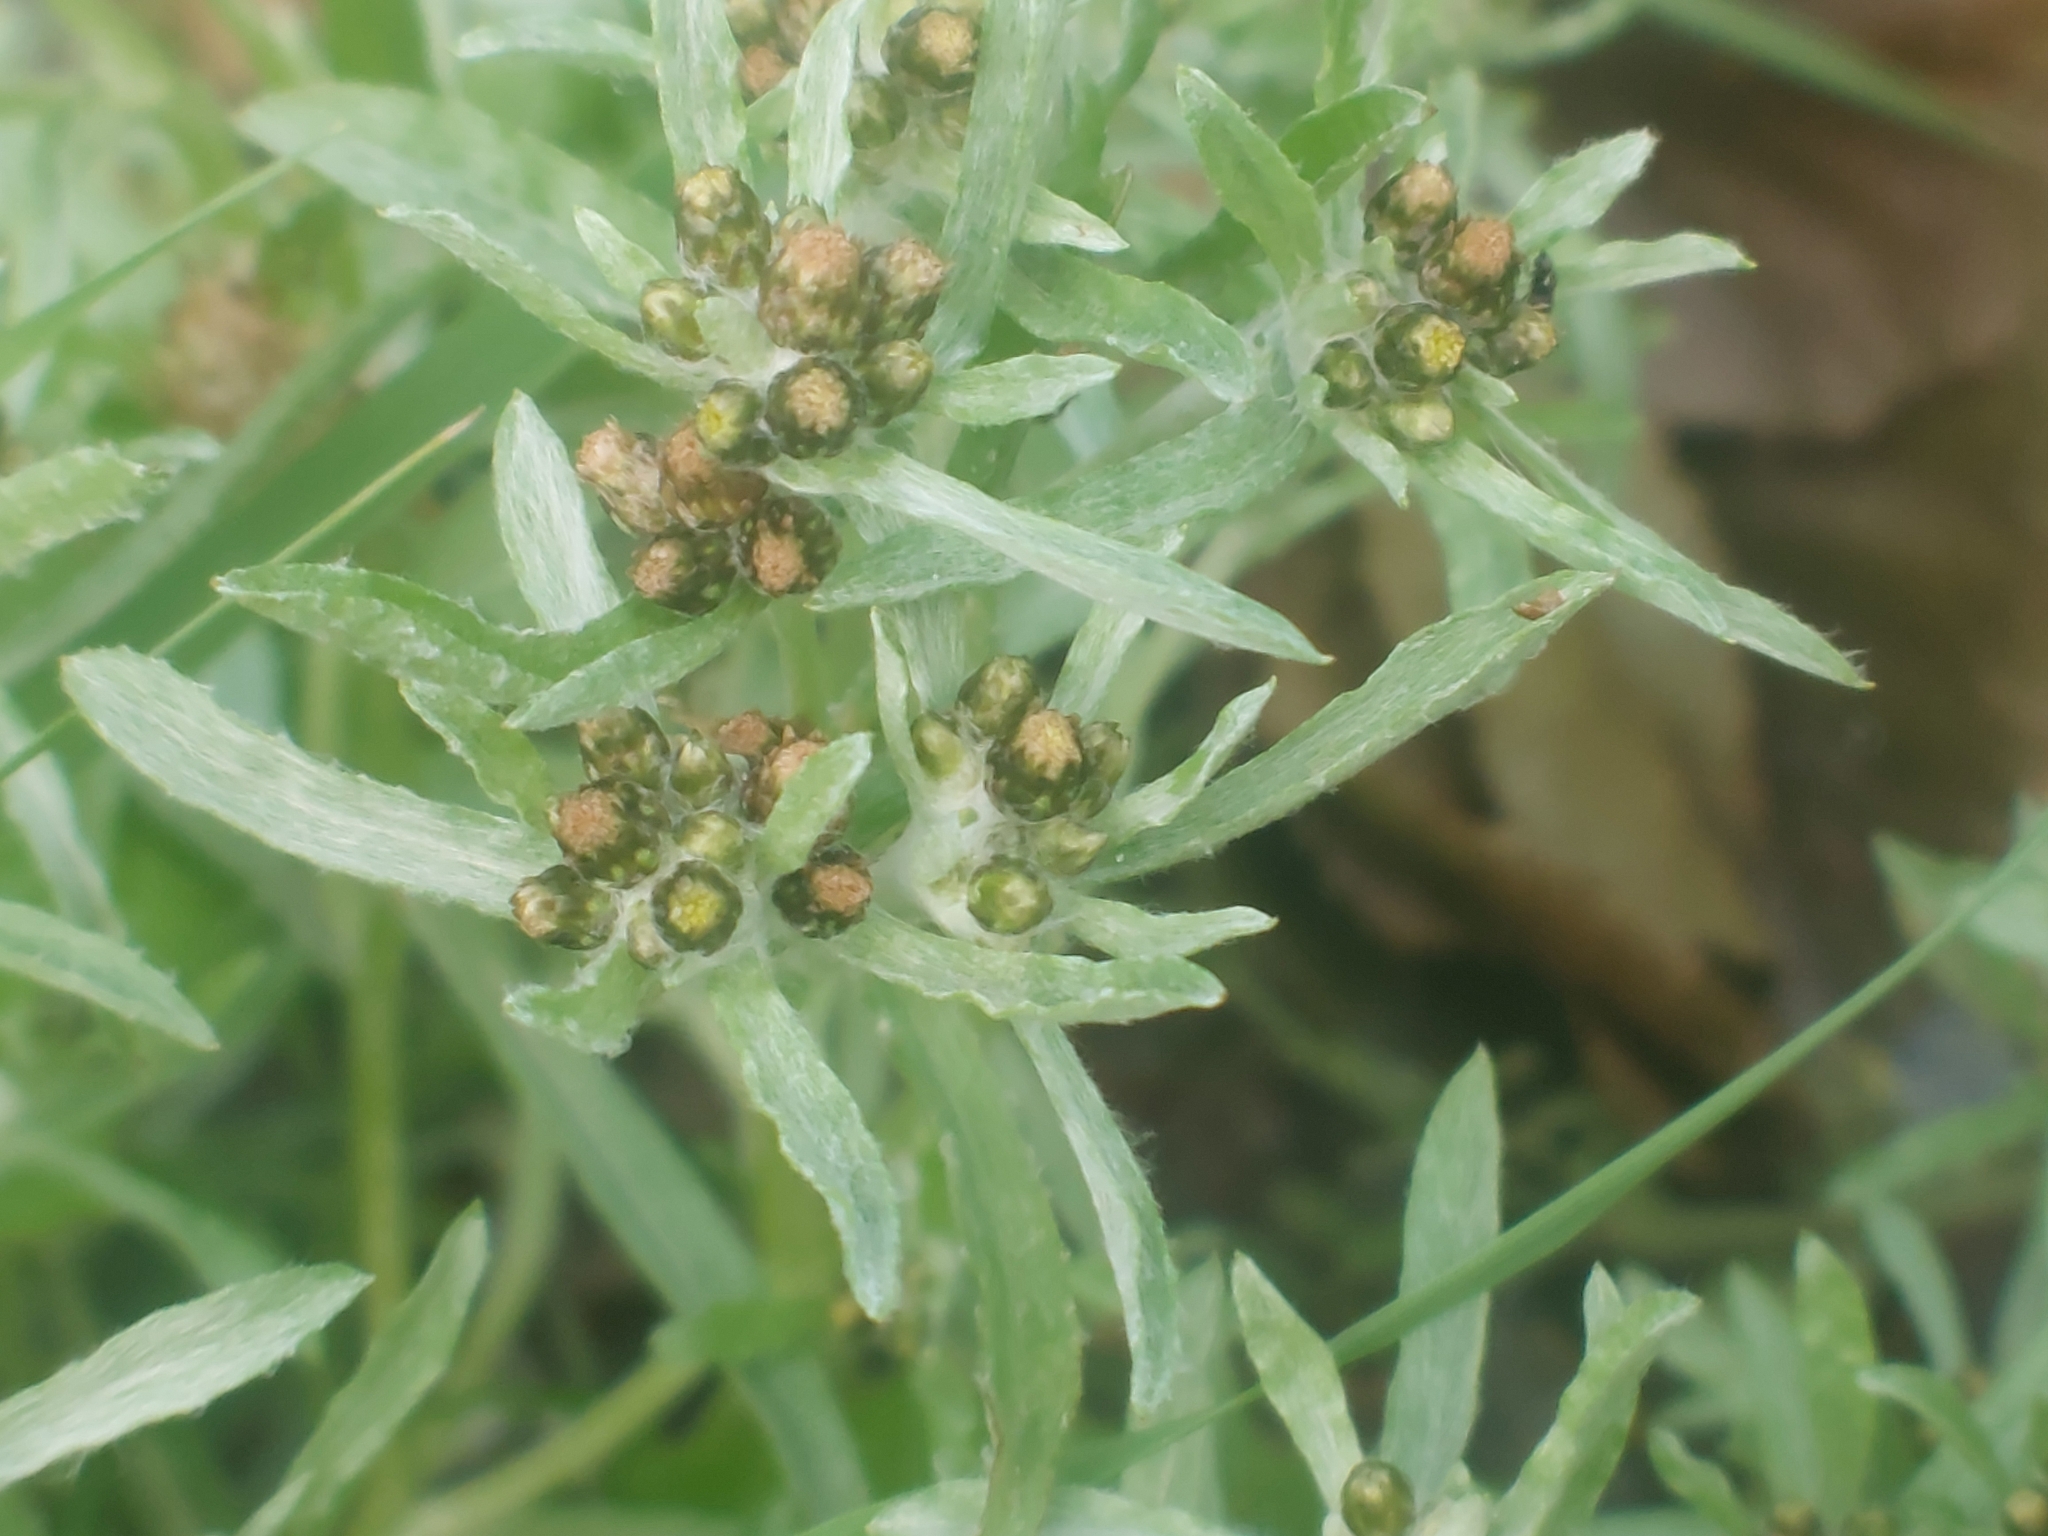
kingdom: Plantae
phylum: Tracheophyta
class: Magnoliopsida
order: Asterales
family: Asteraceae
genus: Gnaphalium
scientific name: Gnaphalium uliginosum
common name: Marsh cudweed
